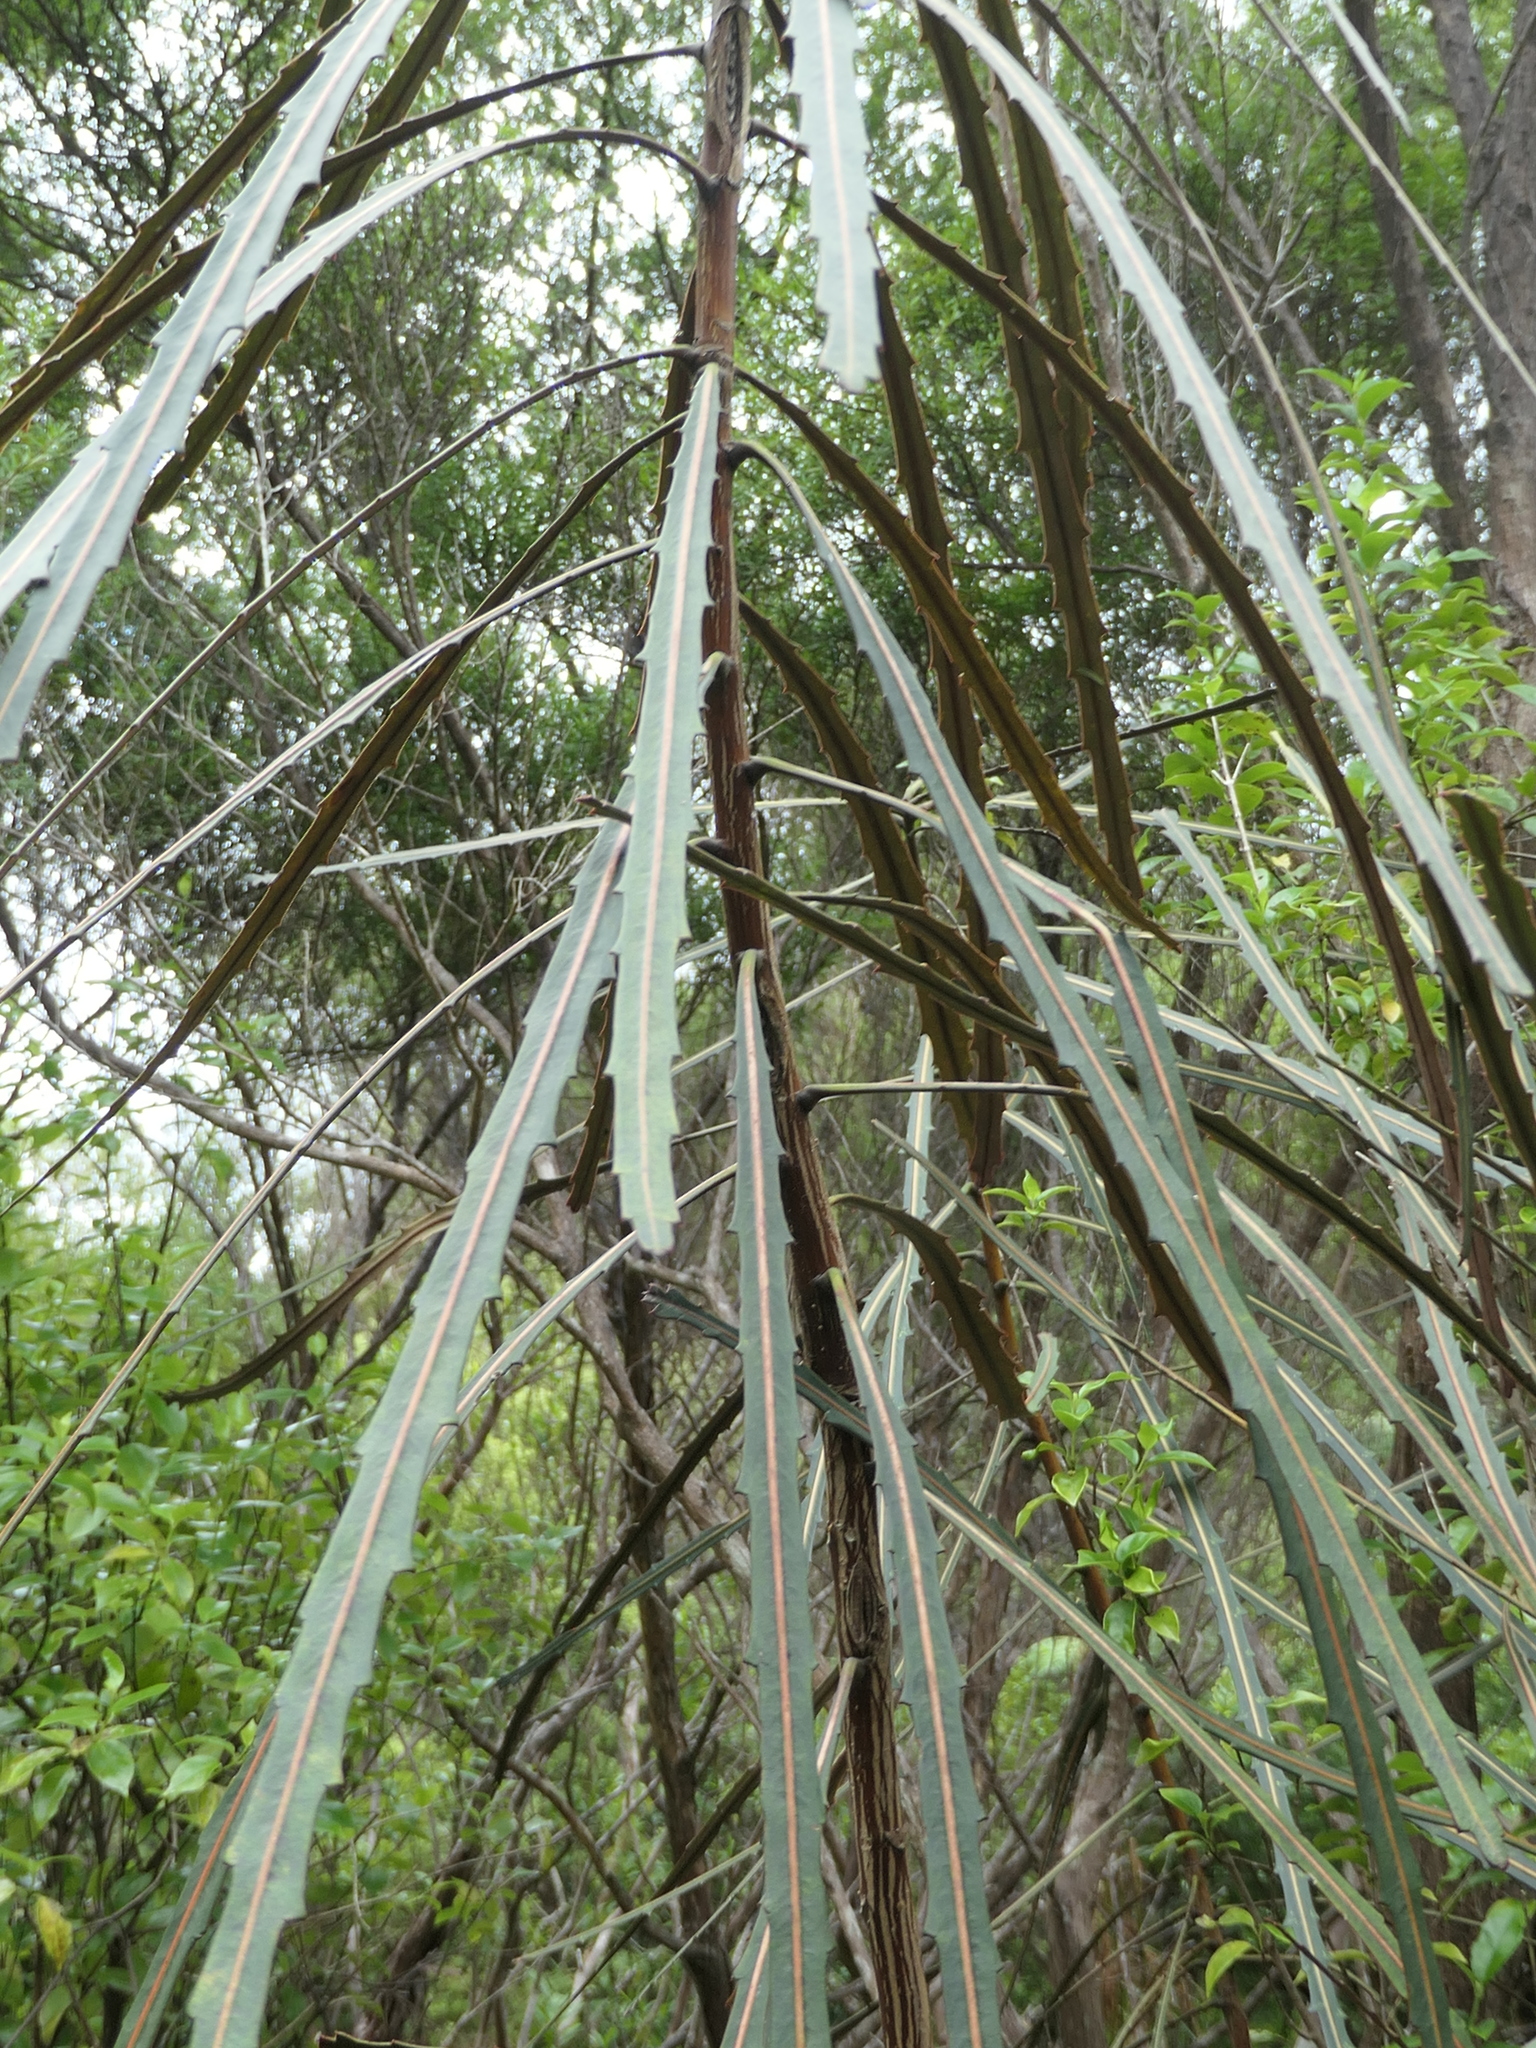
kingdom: Plantae
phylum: Tracheophyta
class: Magnoliopsida
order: Apiales
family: Araliaceae
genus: Pseudopanax
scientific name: Pseudopanax crassifolius
